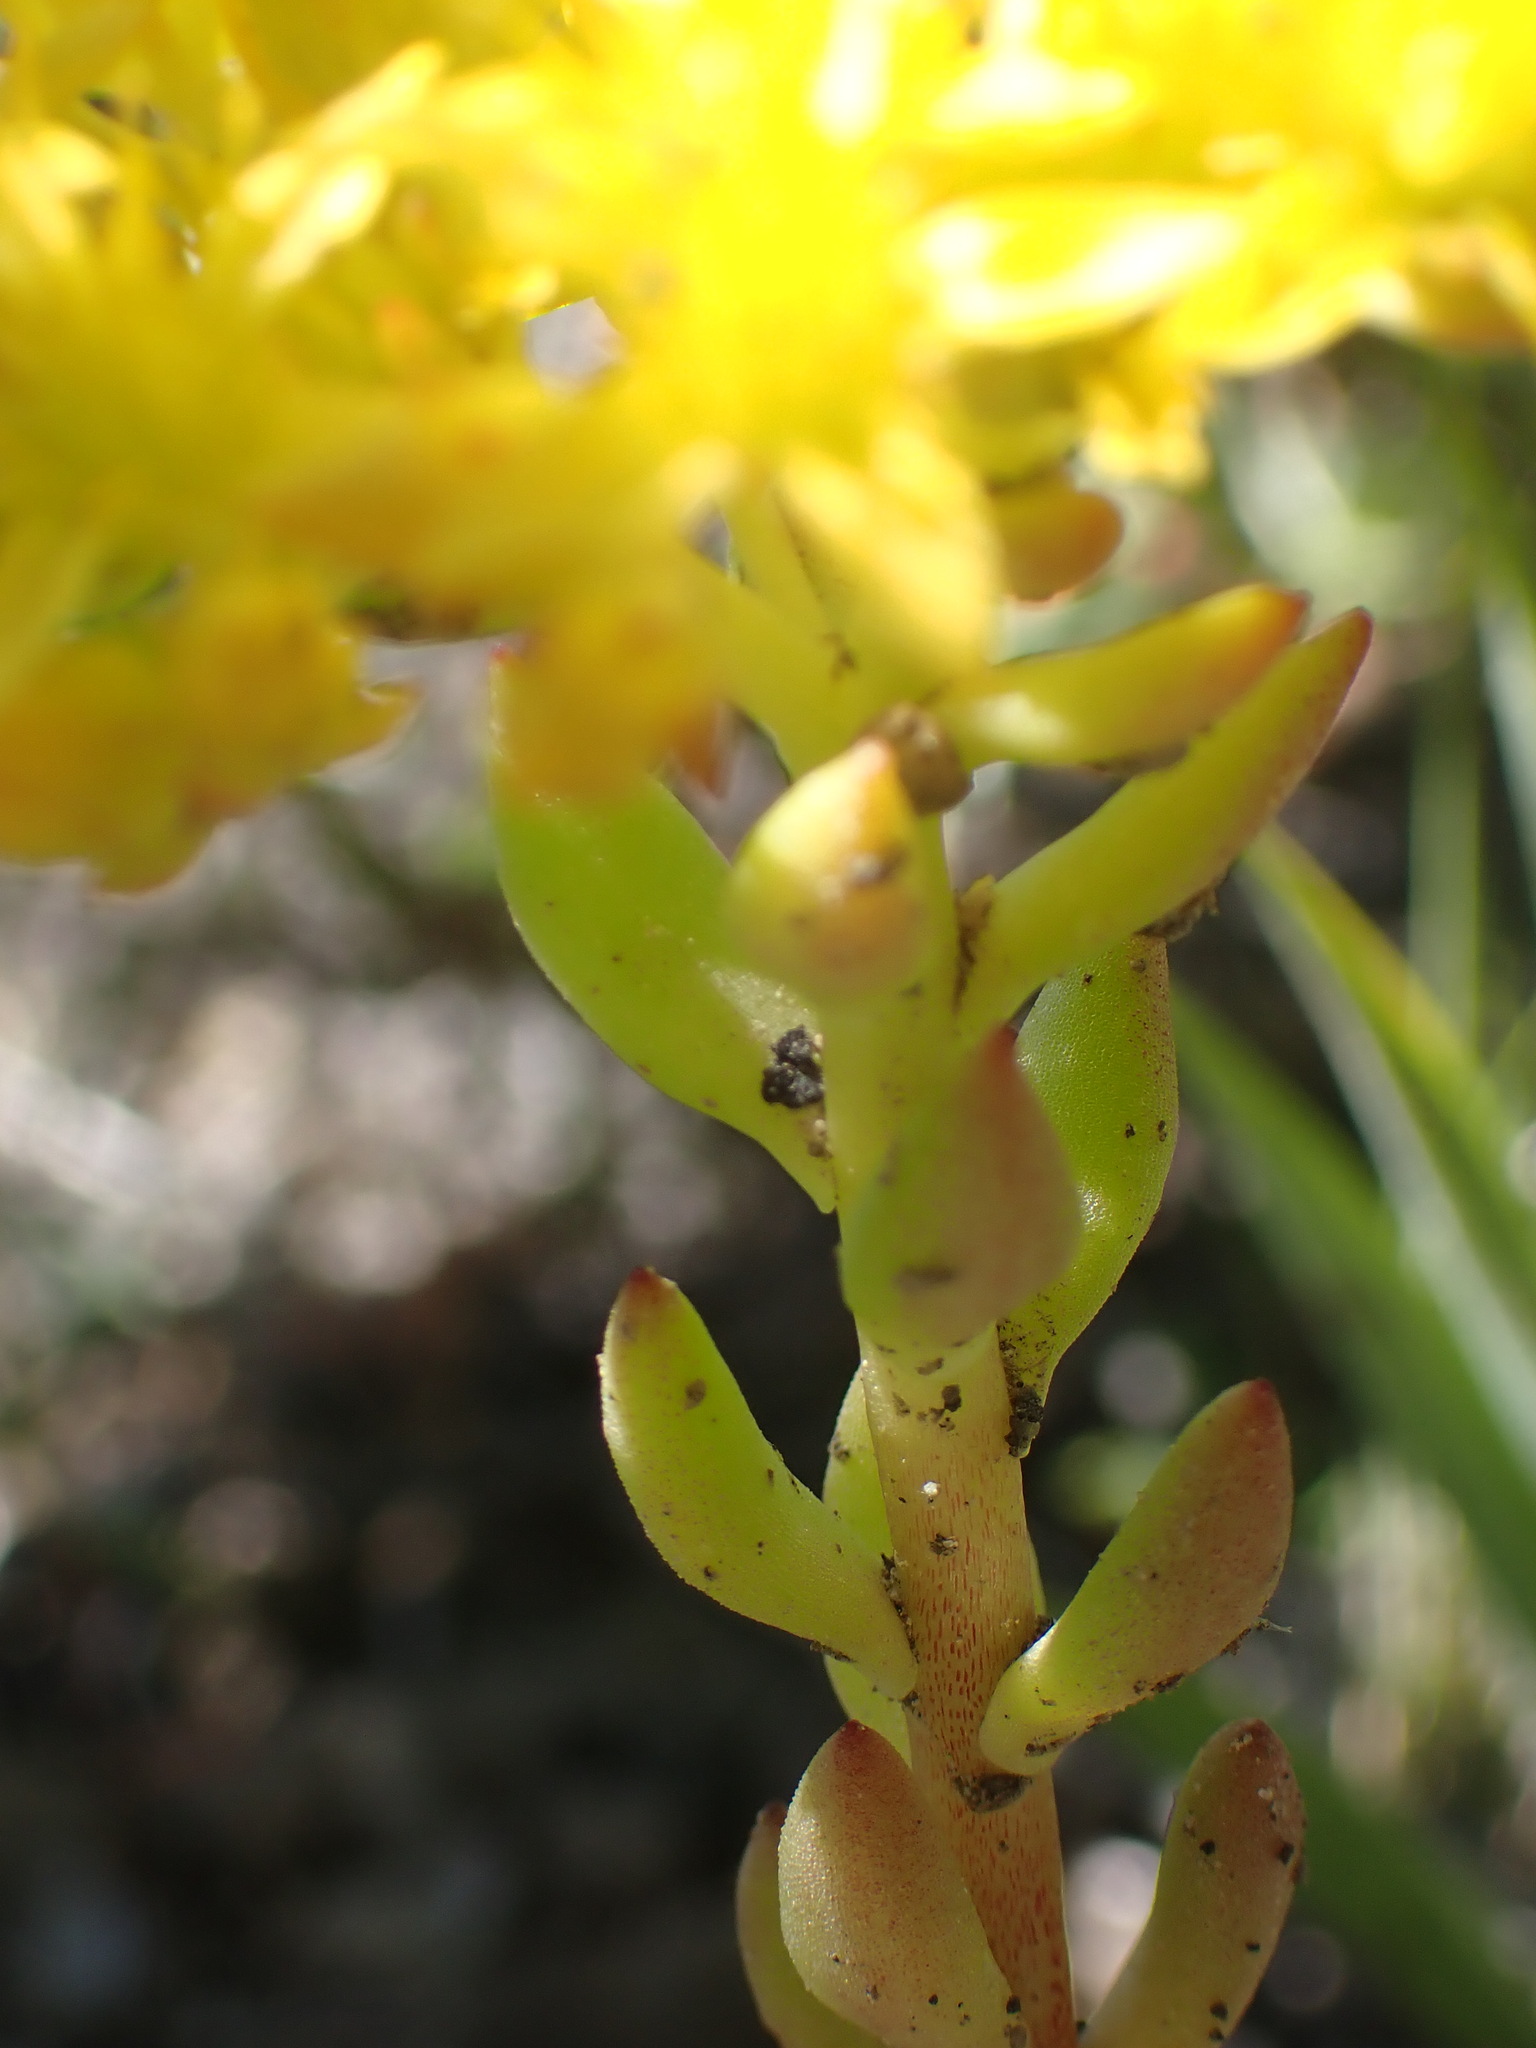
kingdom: Plantae
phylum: Tracheophyta
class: Magnoliopsida
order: Saxifragales
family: Crassulaceae
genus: Sedum
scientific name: Sedum lanceolatum
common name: Common stonecrop
